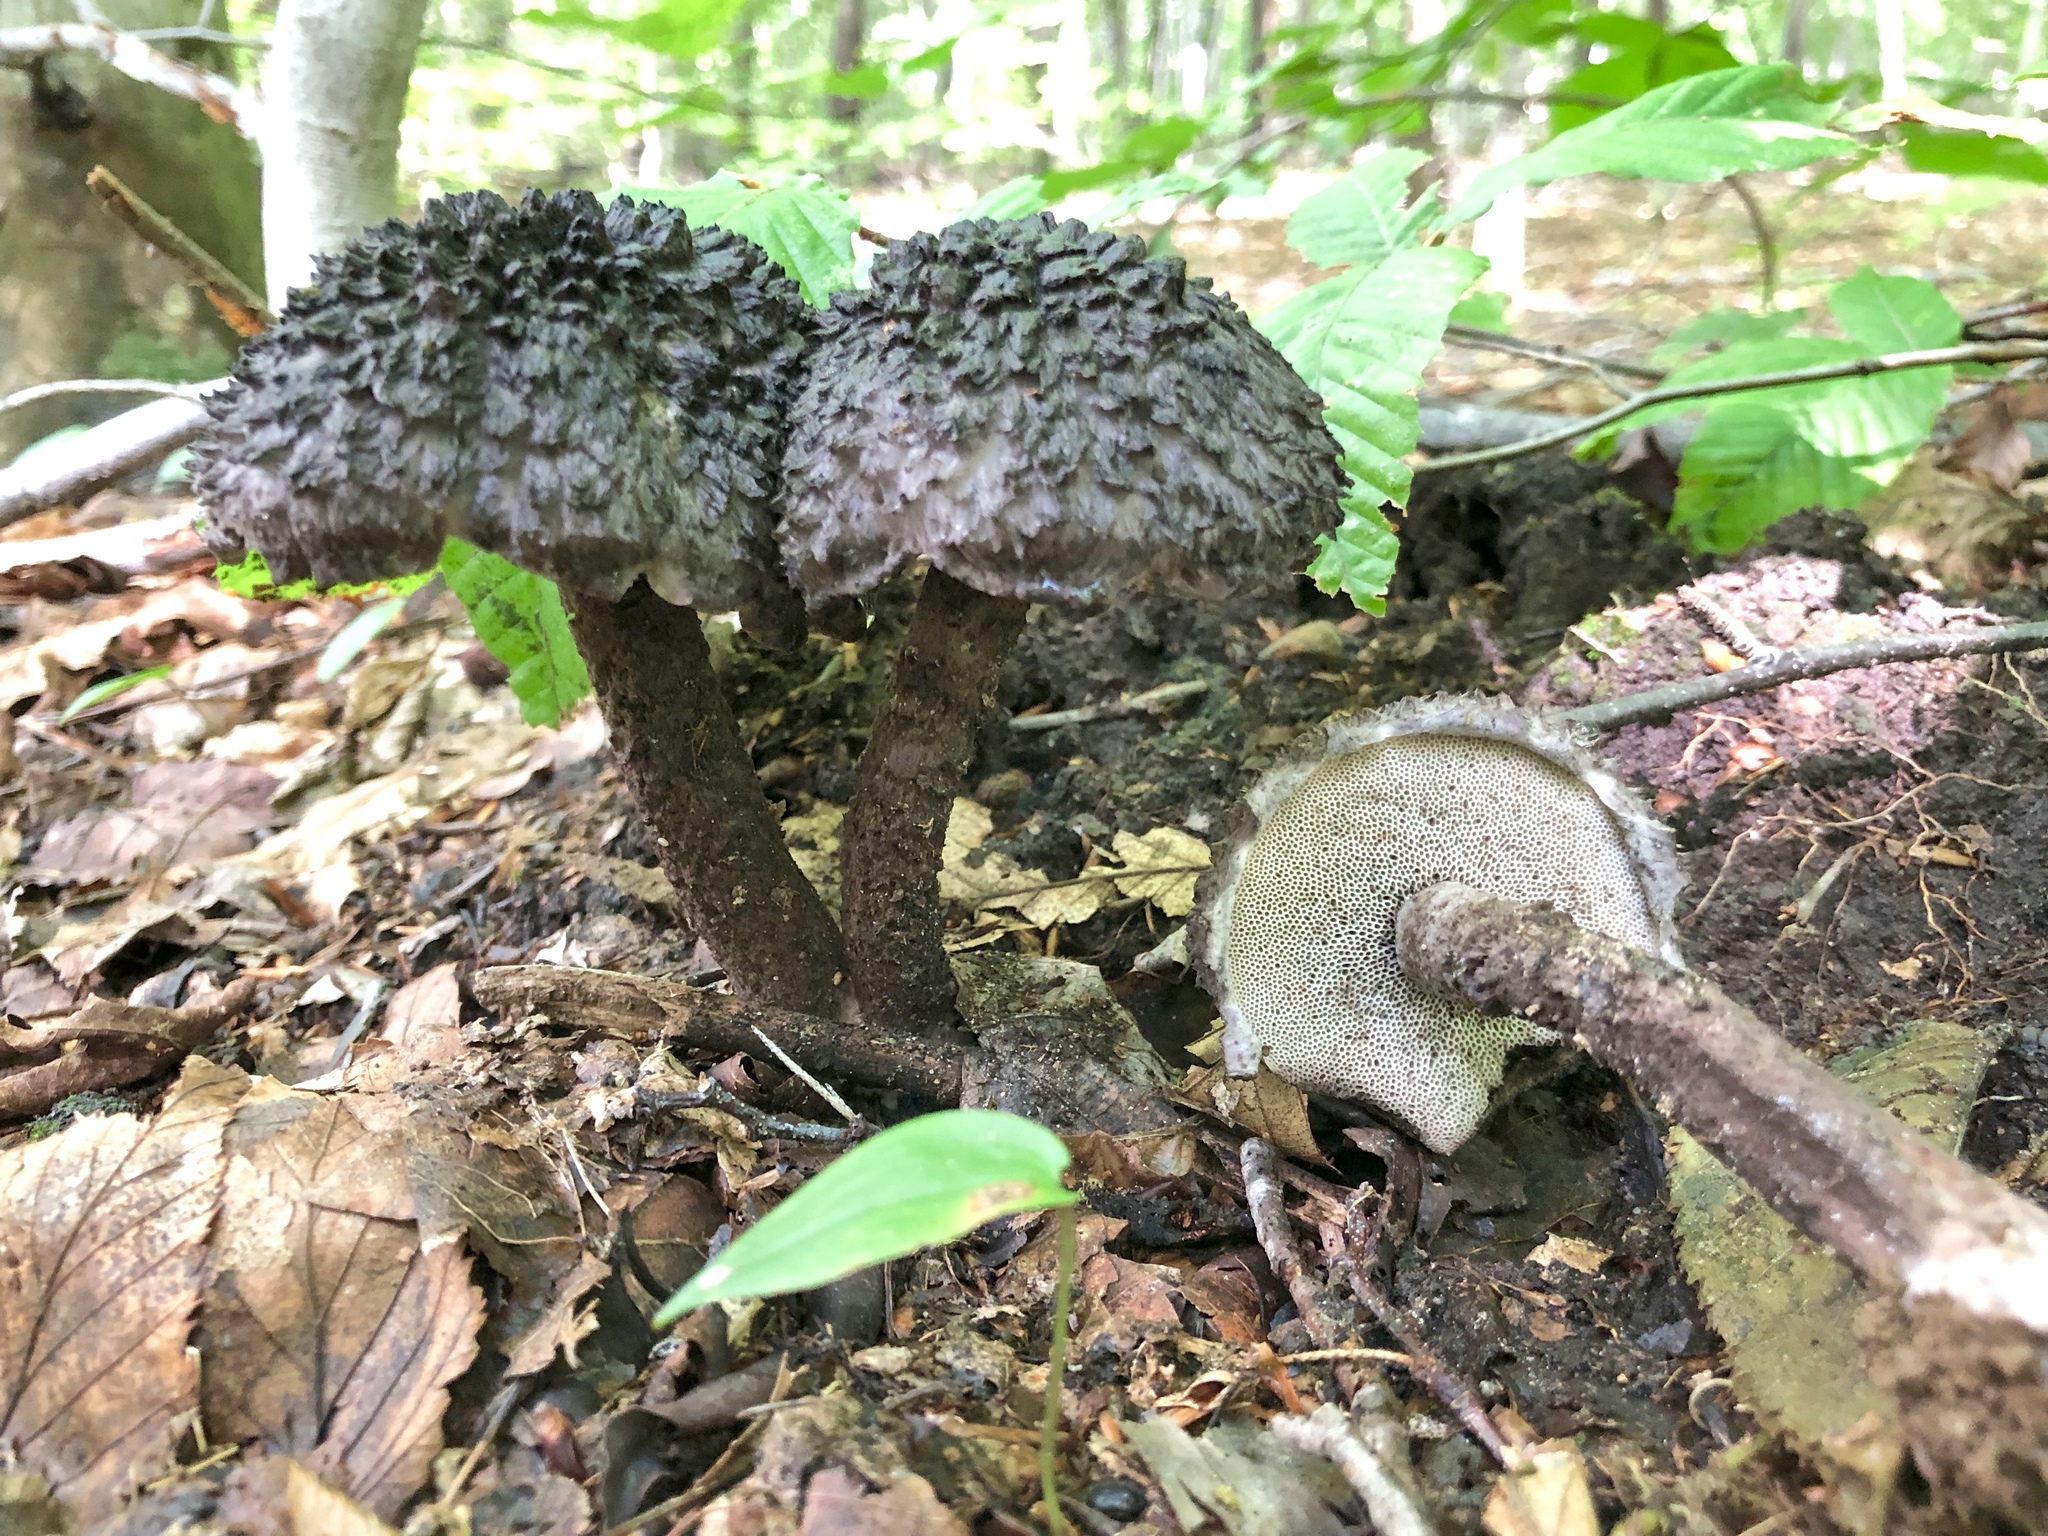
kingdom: Fungi
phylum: Basidiomycota
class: Agaricomycetes
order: Boletales
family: Boletaceae
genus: Strobilomyces
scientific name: Strobilomyces strobilaceus
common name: Old man of the woods
